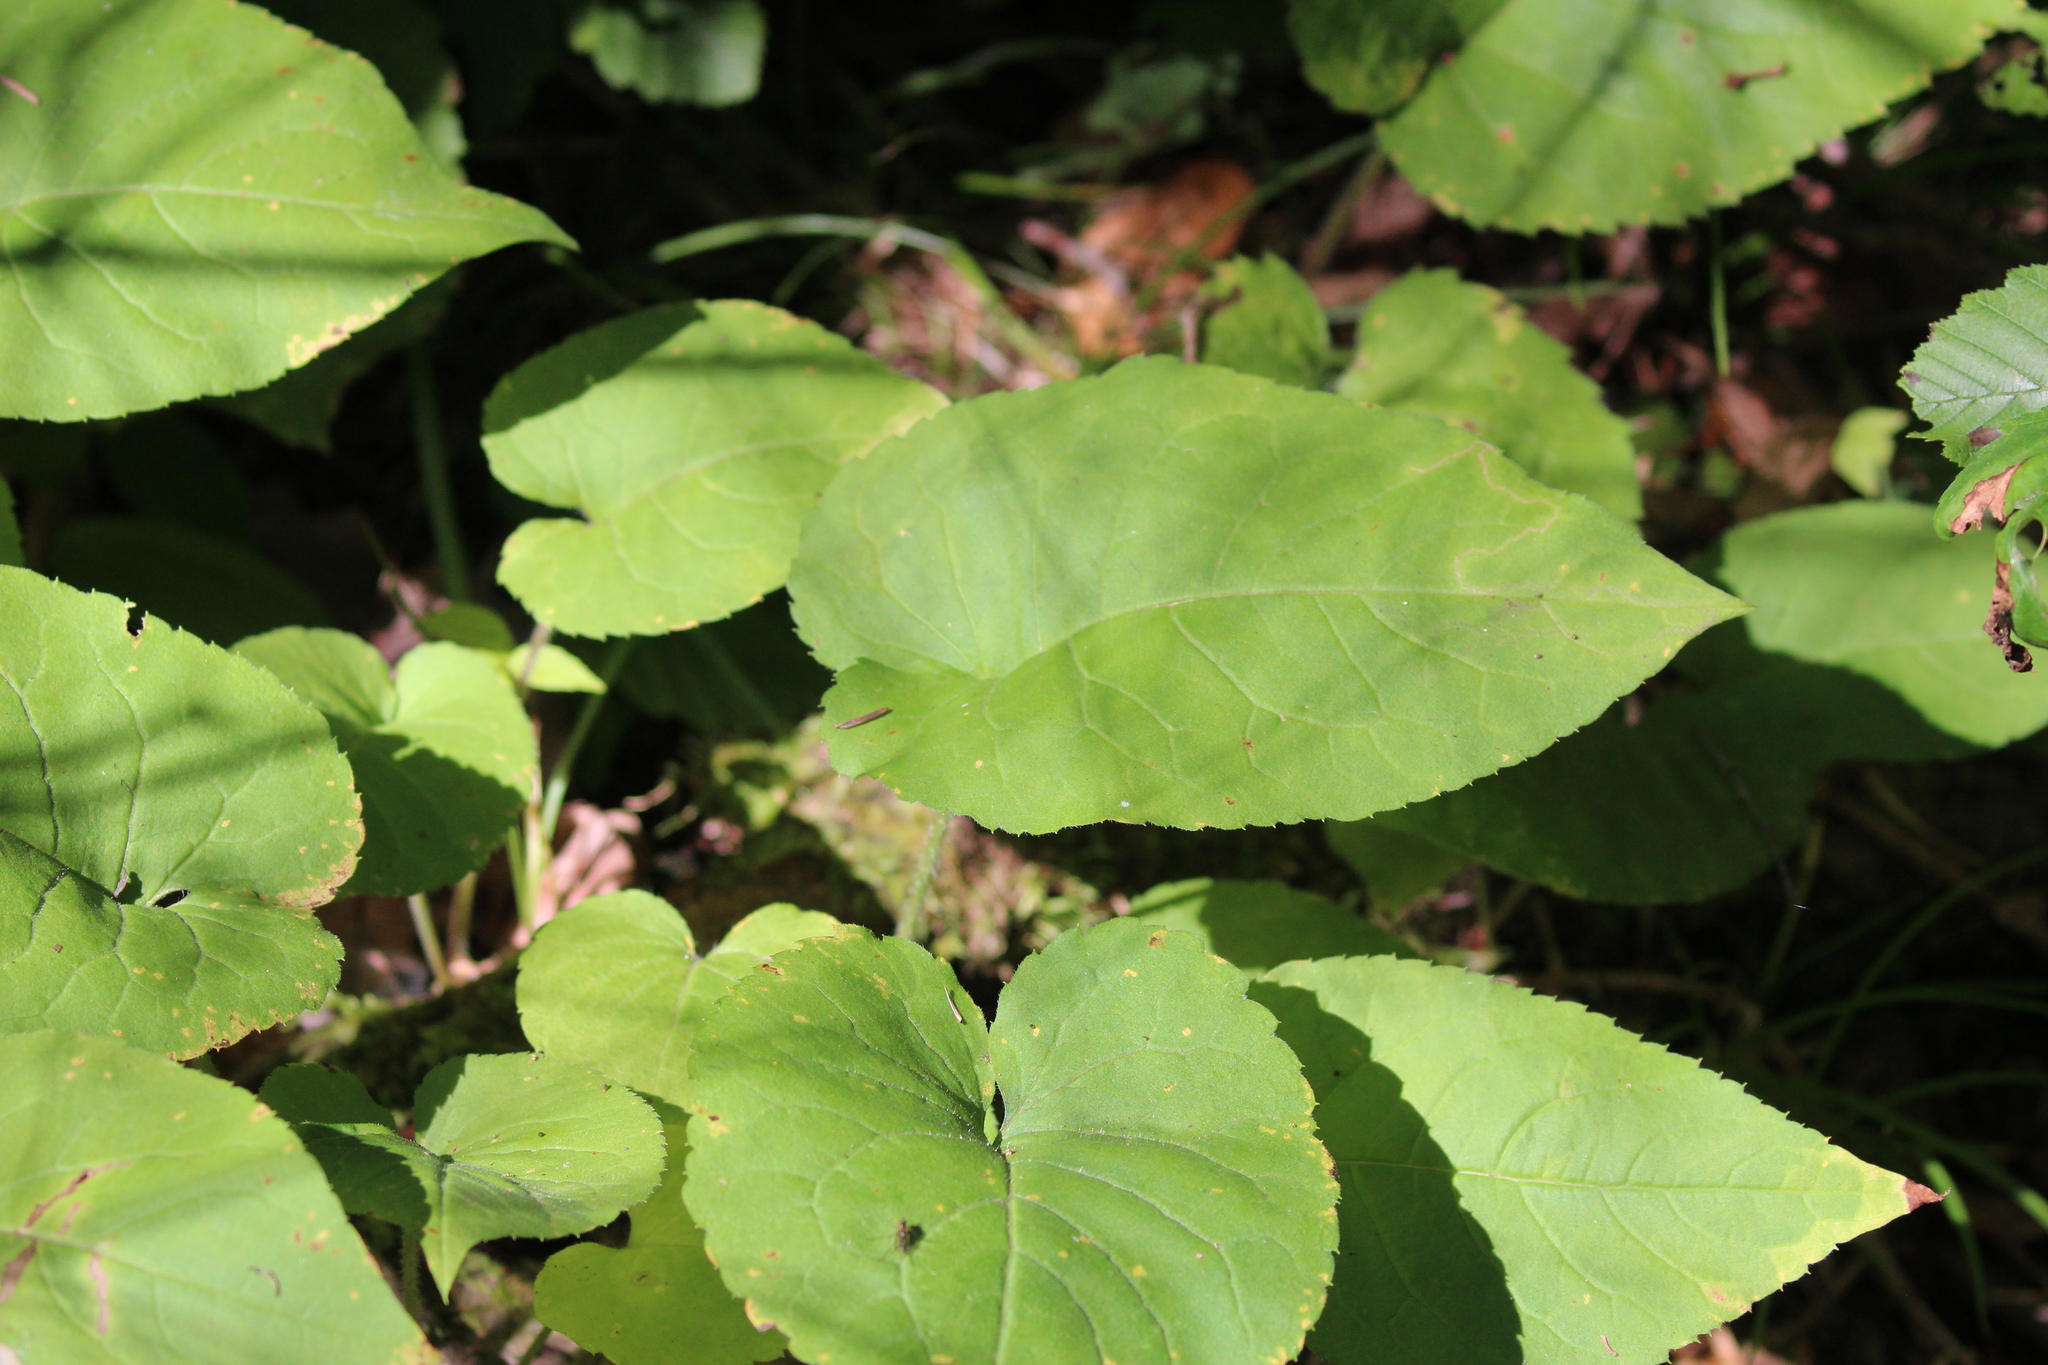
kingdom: Plantae
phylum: Tracheophyta
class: Magnoliopsida
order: Asterales
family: Asteraceae
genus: Eurybia
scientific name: Eurybia macrophylla
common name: Big-leaved aster
